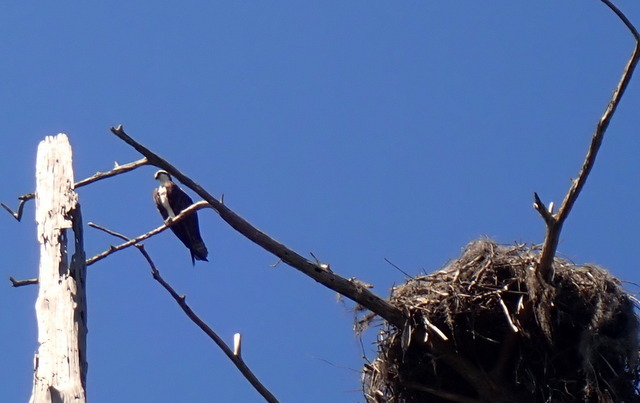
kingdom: Animalia
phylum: Chordata
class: Aves
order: Accipitriformes
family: Pandionidae
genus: Pandion
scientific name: Pandion haliaetus
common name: Osprey
